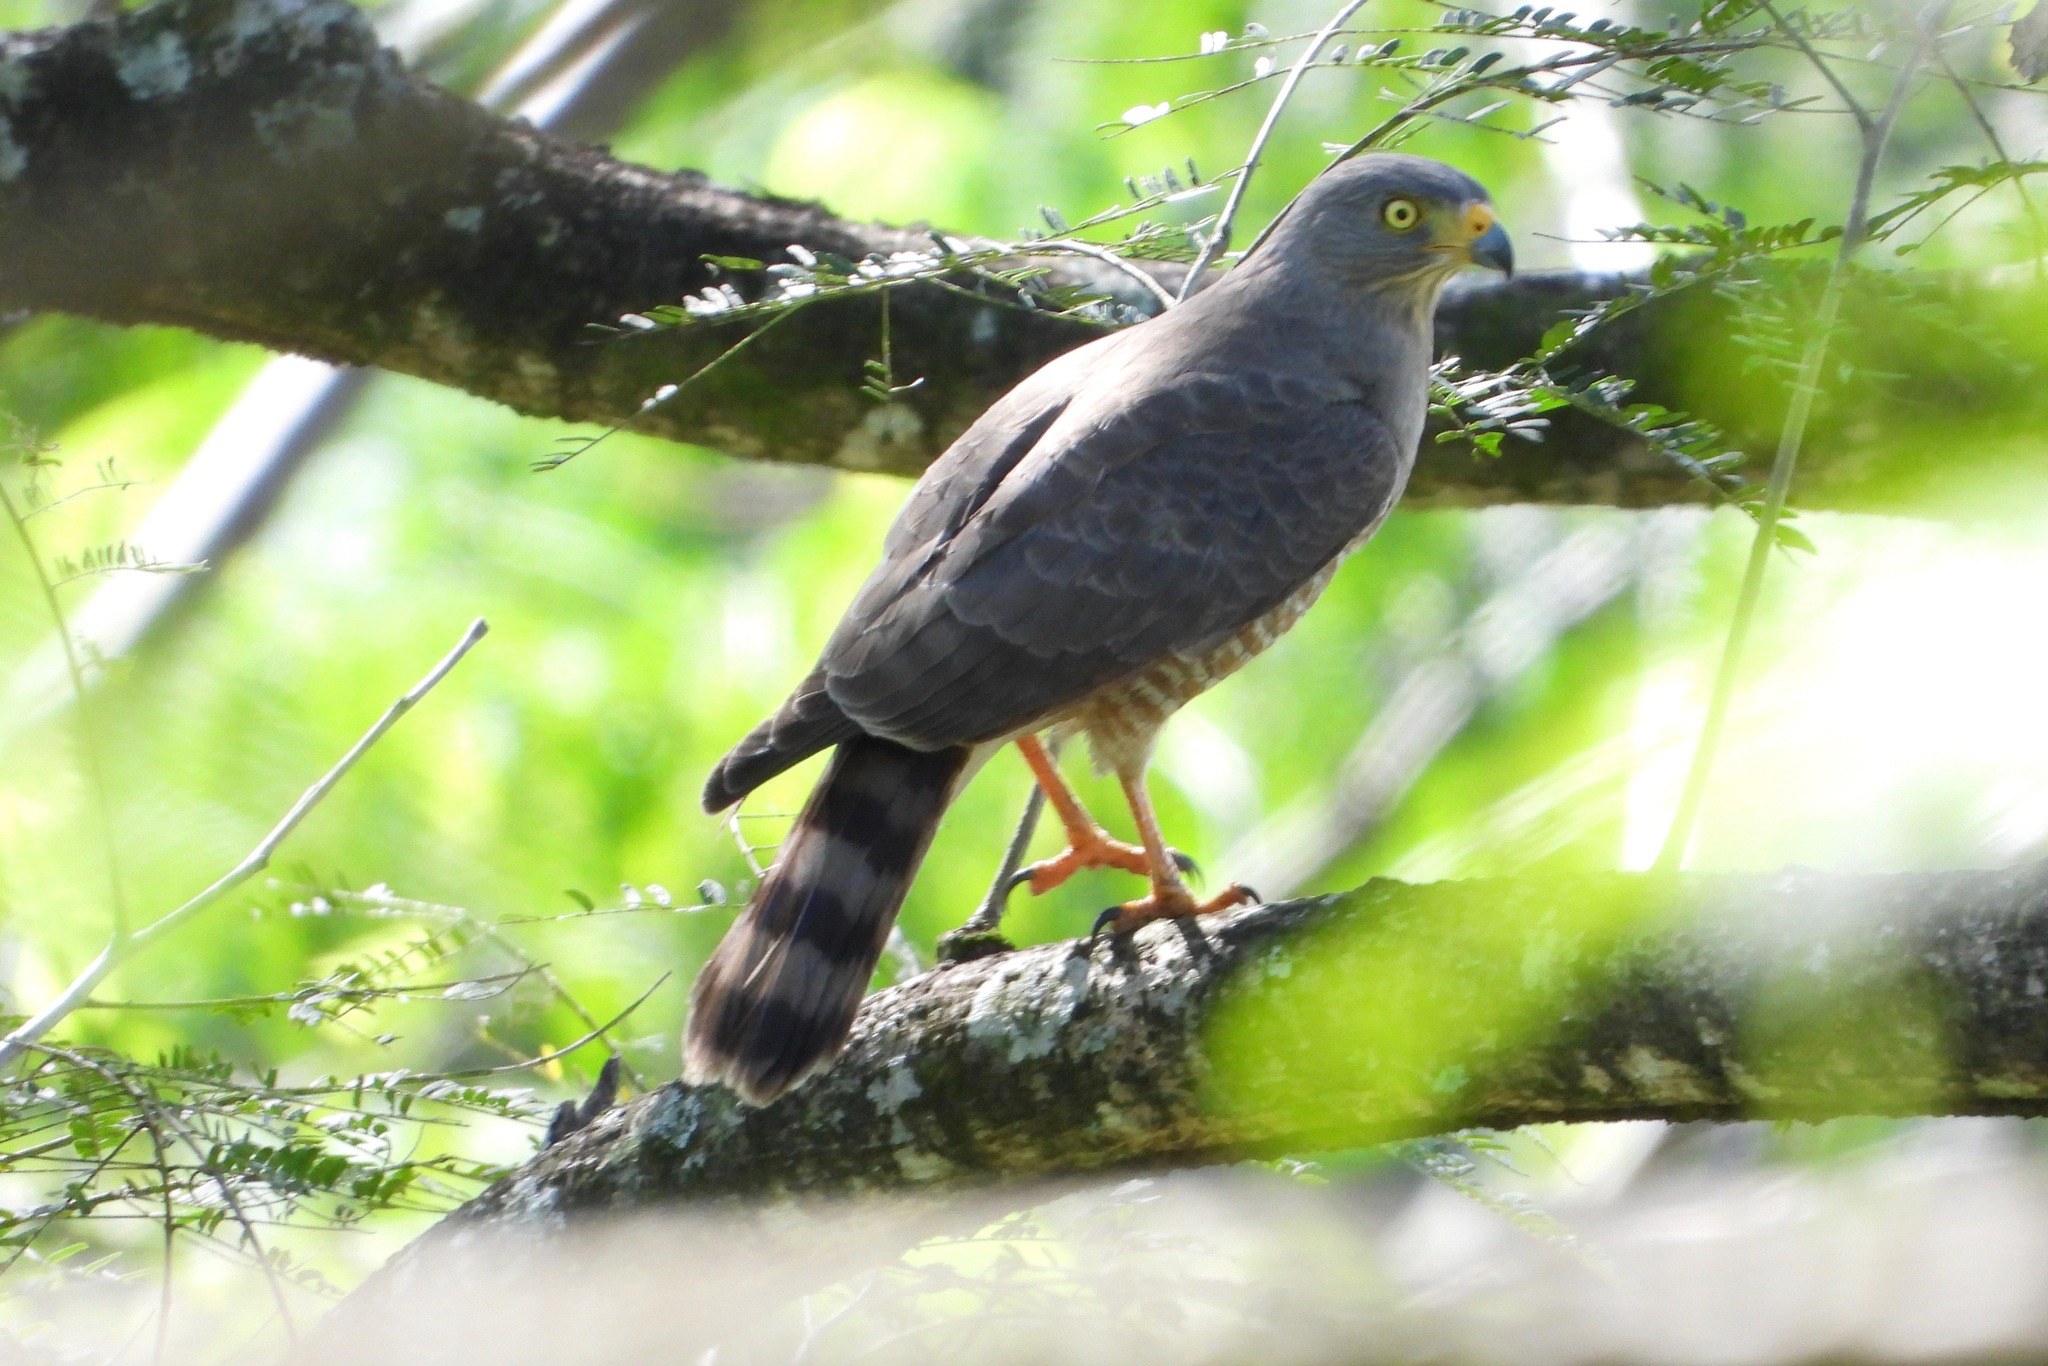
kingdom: Animalia
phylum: Chordata
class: Aves
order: Accipitriformes
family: Accipitridae
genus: Rupornis
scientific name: Rupornis magnirostris
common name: Roadside hawk
